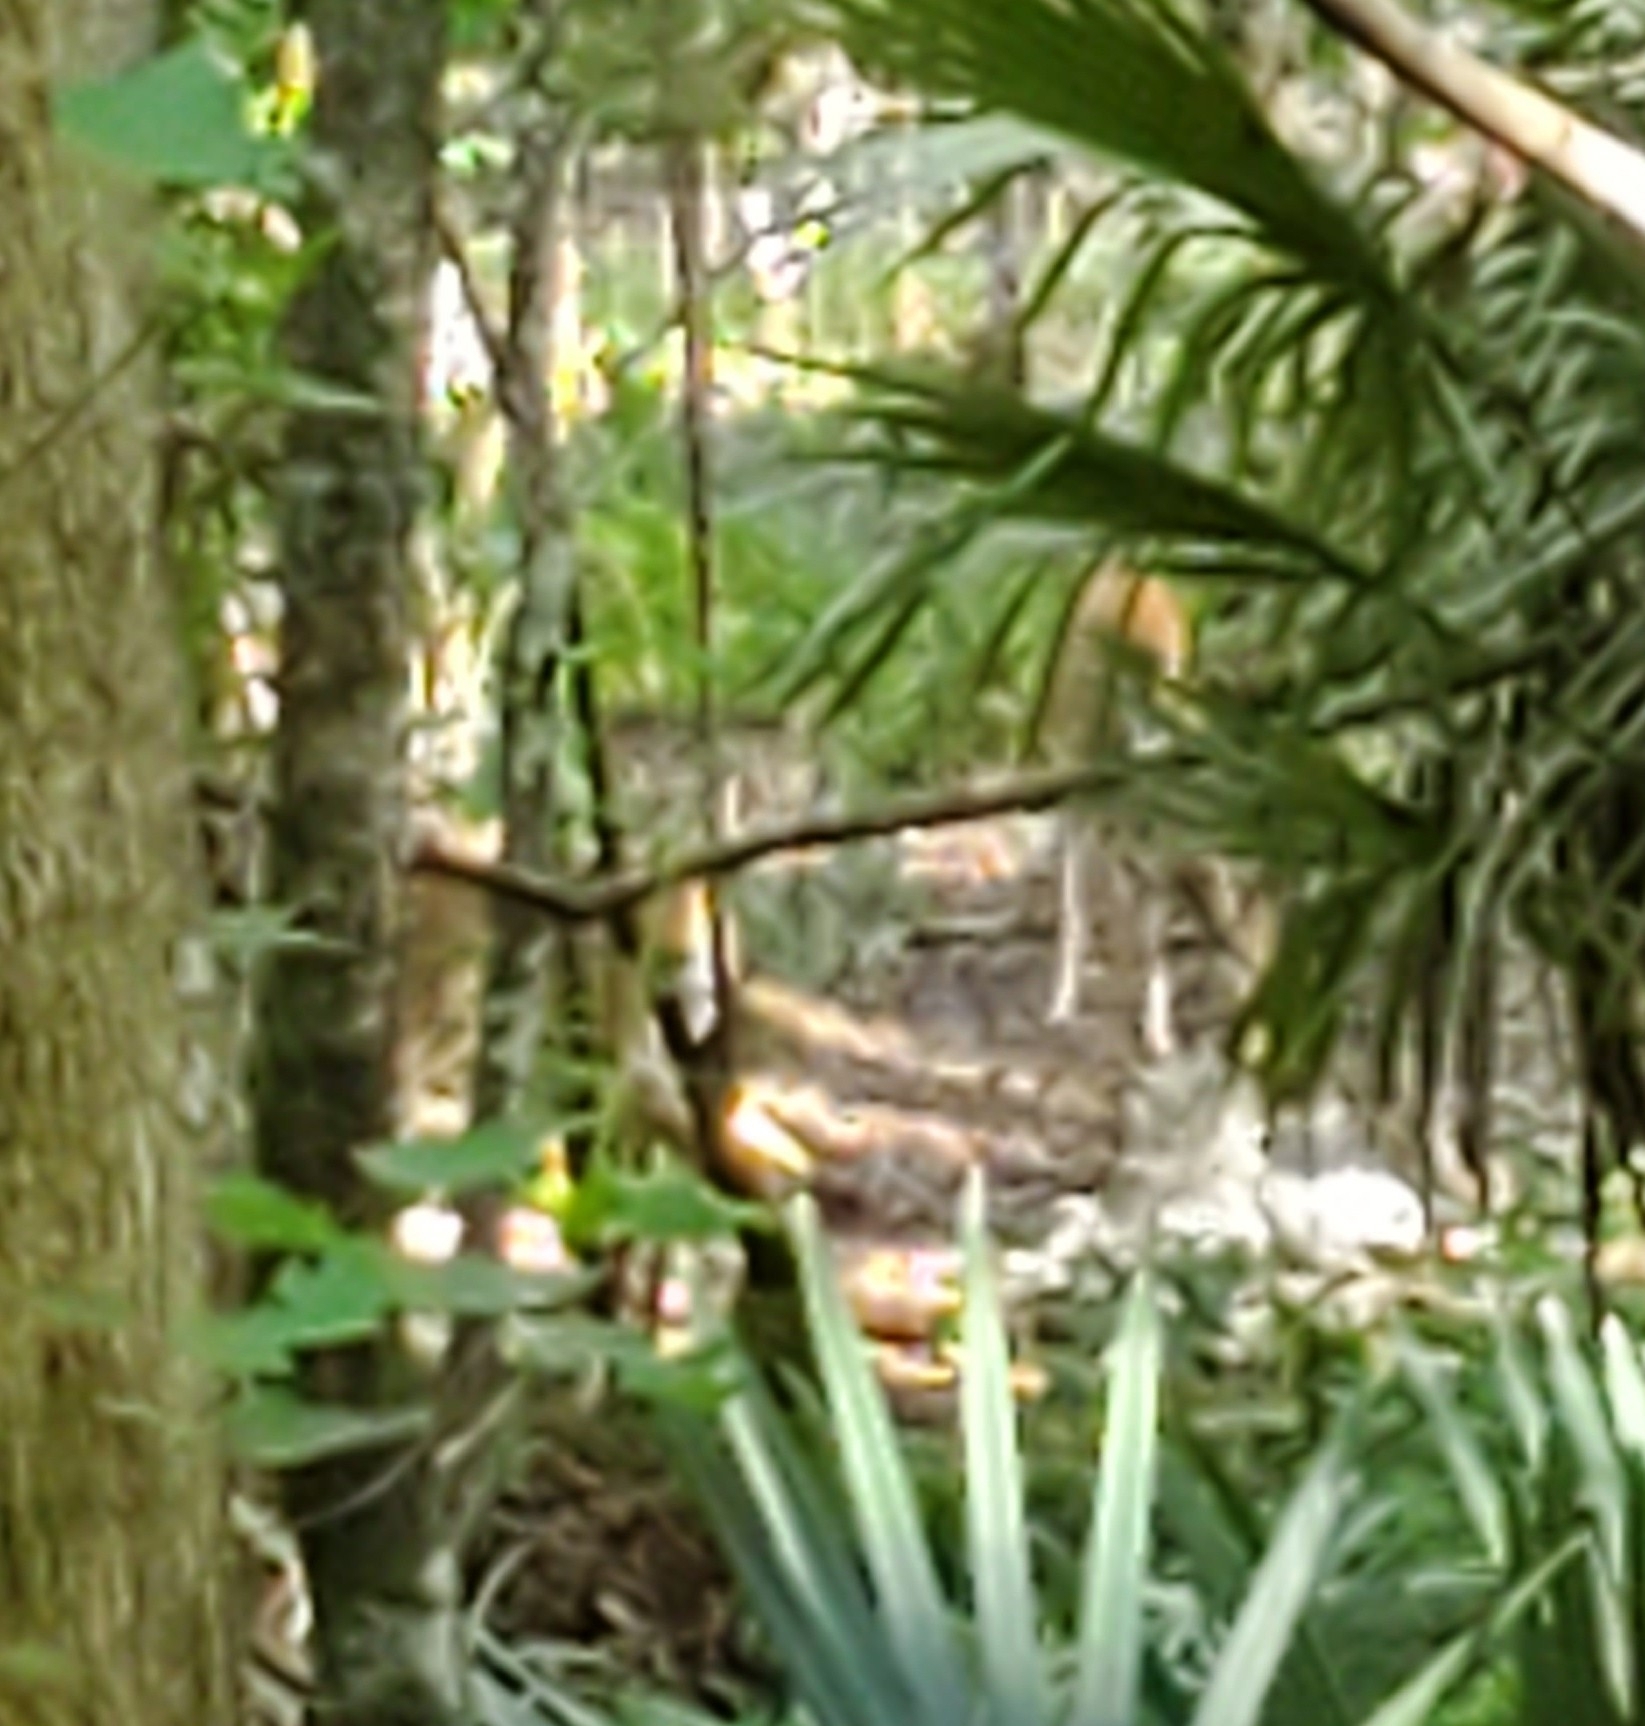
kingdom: Animalia
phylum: Chordata
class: Mammalia
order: Artiodactyla
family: Cervidae
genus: Odocoileus
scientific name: Odocoileus virginianus
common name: White-tailed deer
